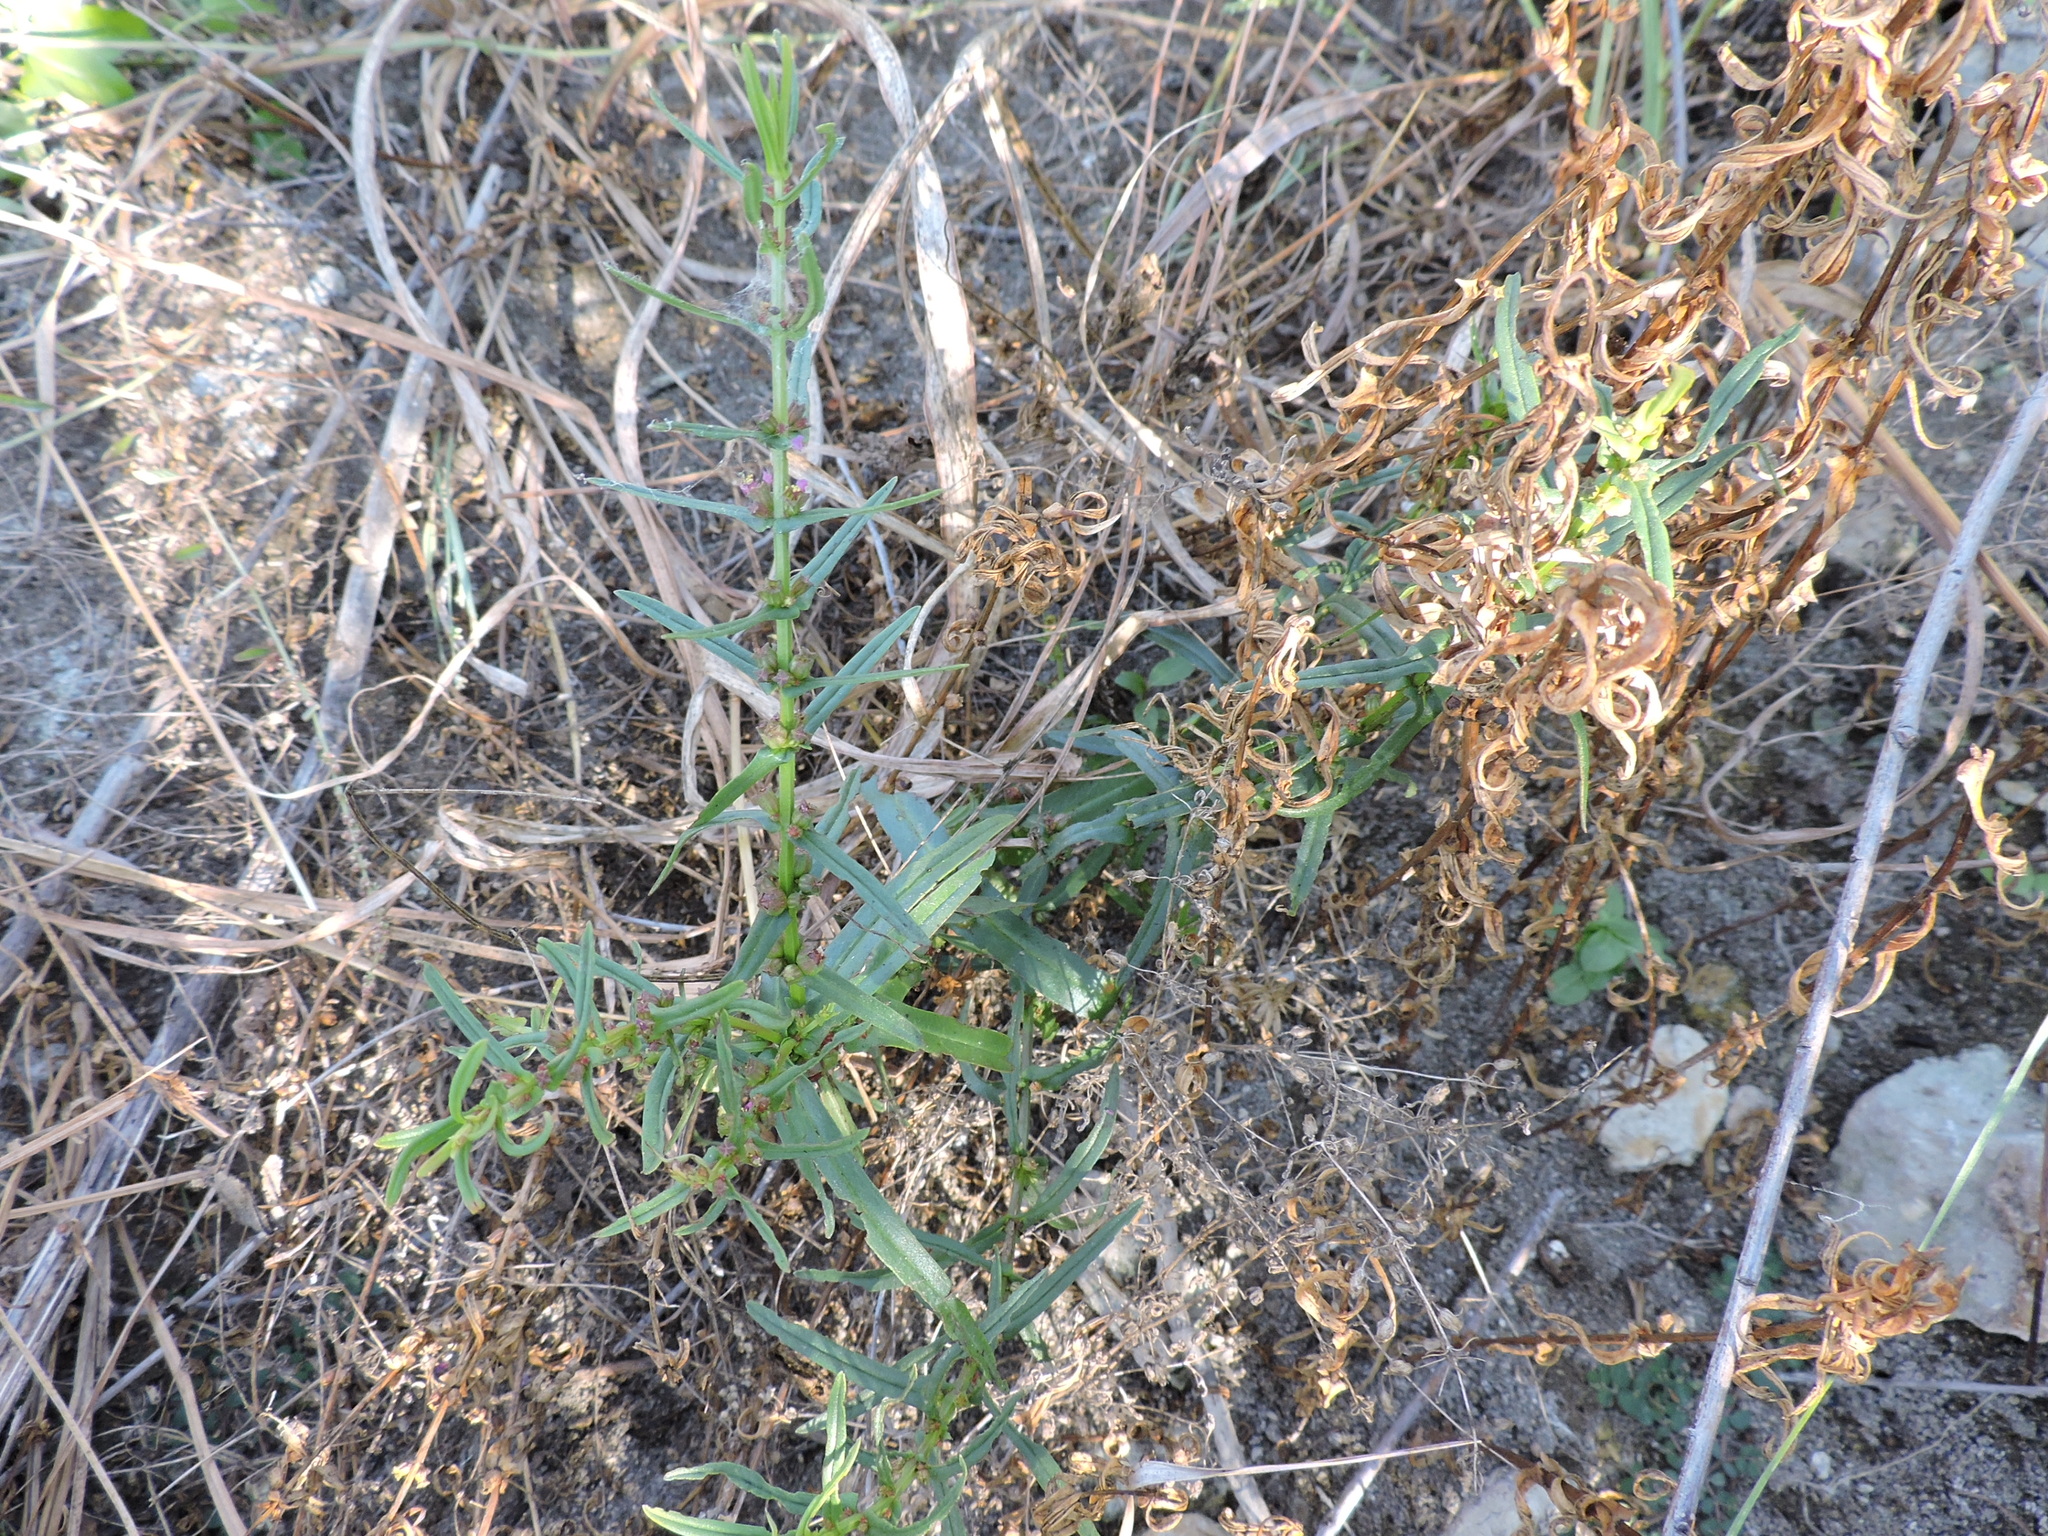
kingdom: Plantae
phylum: Tracheophyta
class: Magnoliopsida
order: Myrtales
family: Lythraceae
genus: Ammannia
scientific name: Ammannia coccinea
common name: Valley redstem
